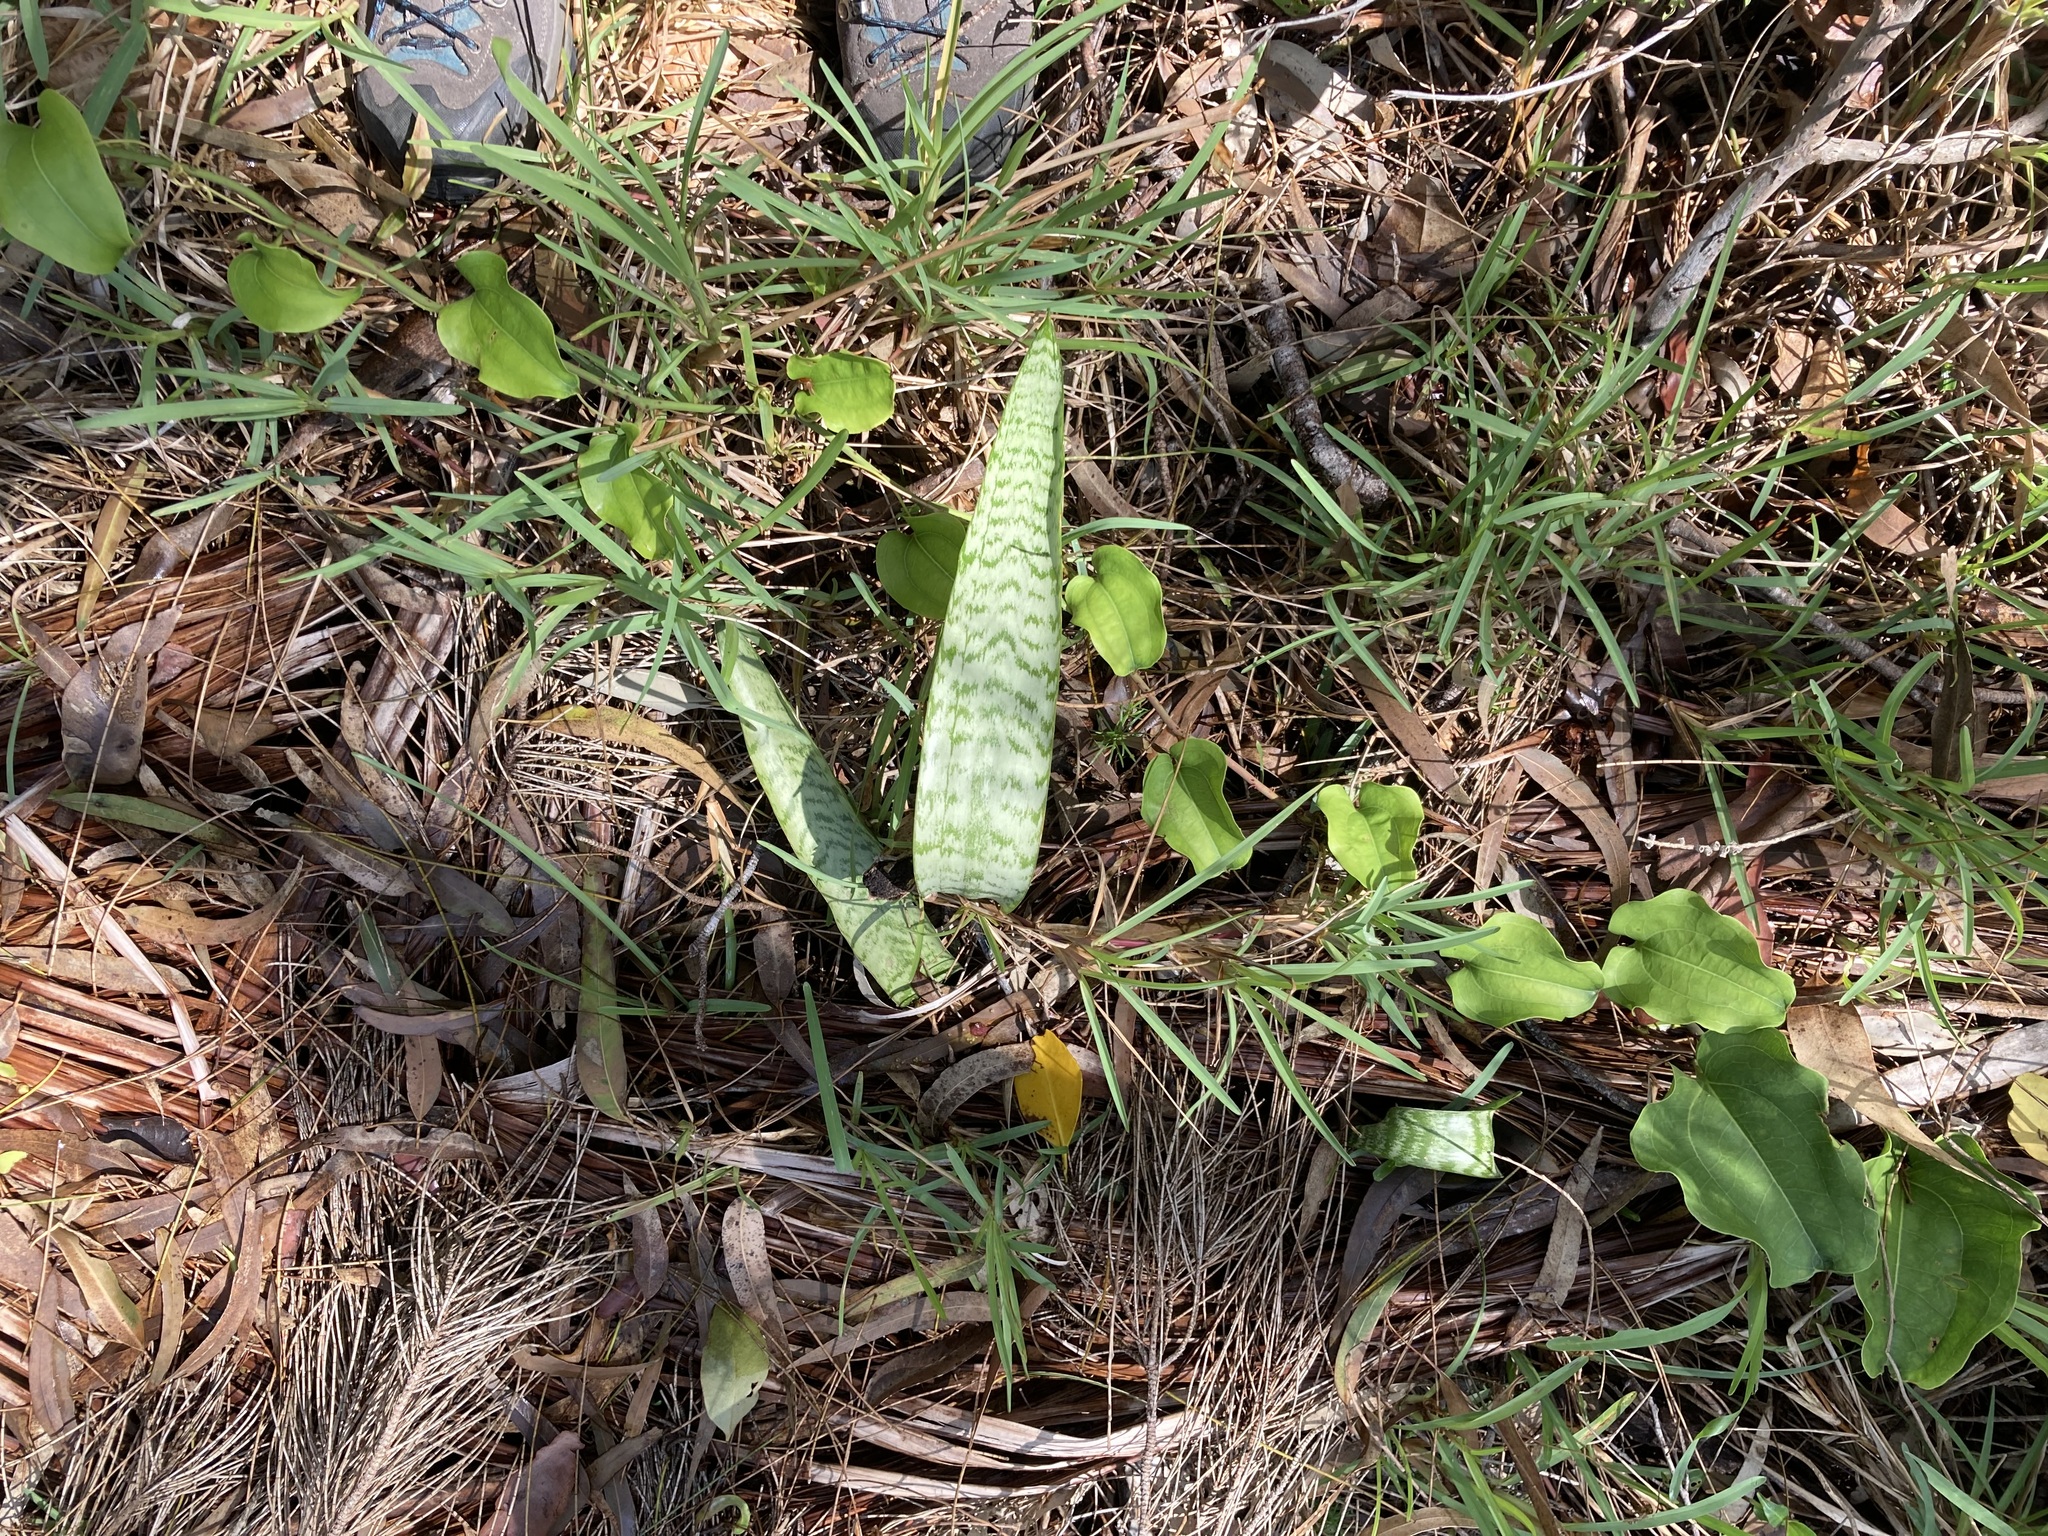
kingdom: Plantae
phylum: Tracheophyta
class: Liliopsida
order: Asparagales
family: Asparagaceae
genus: Dracaena
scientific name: Dracaena trifasciata
